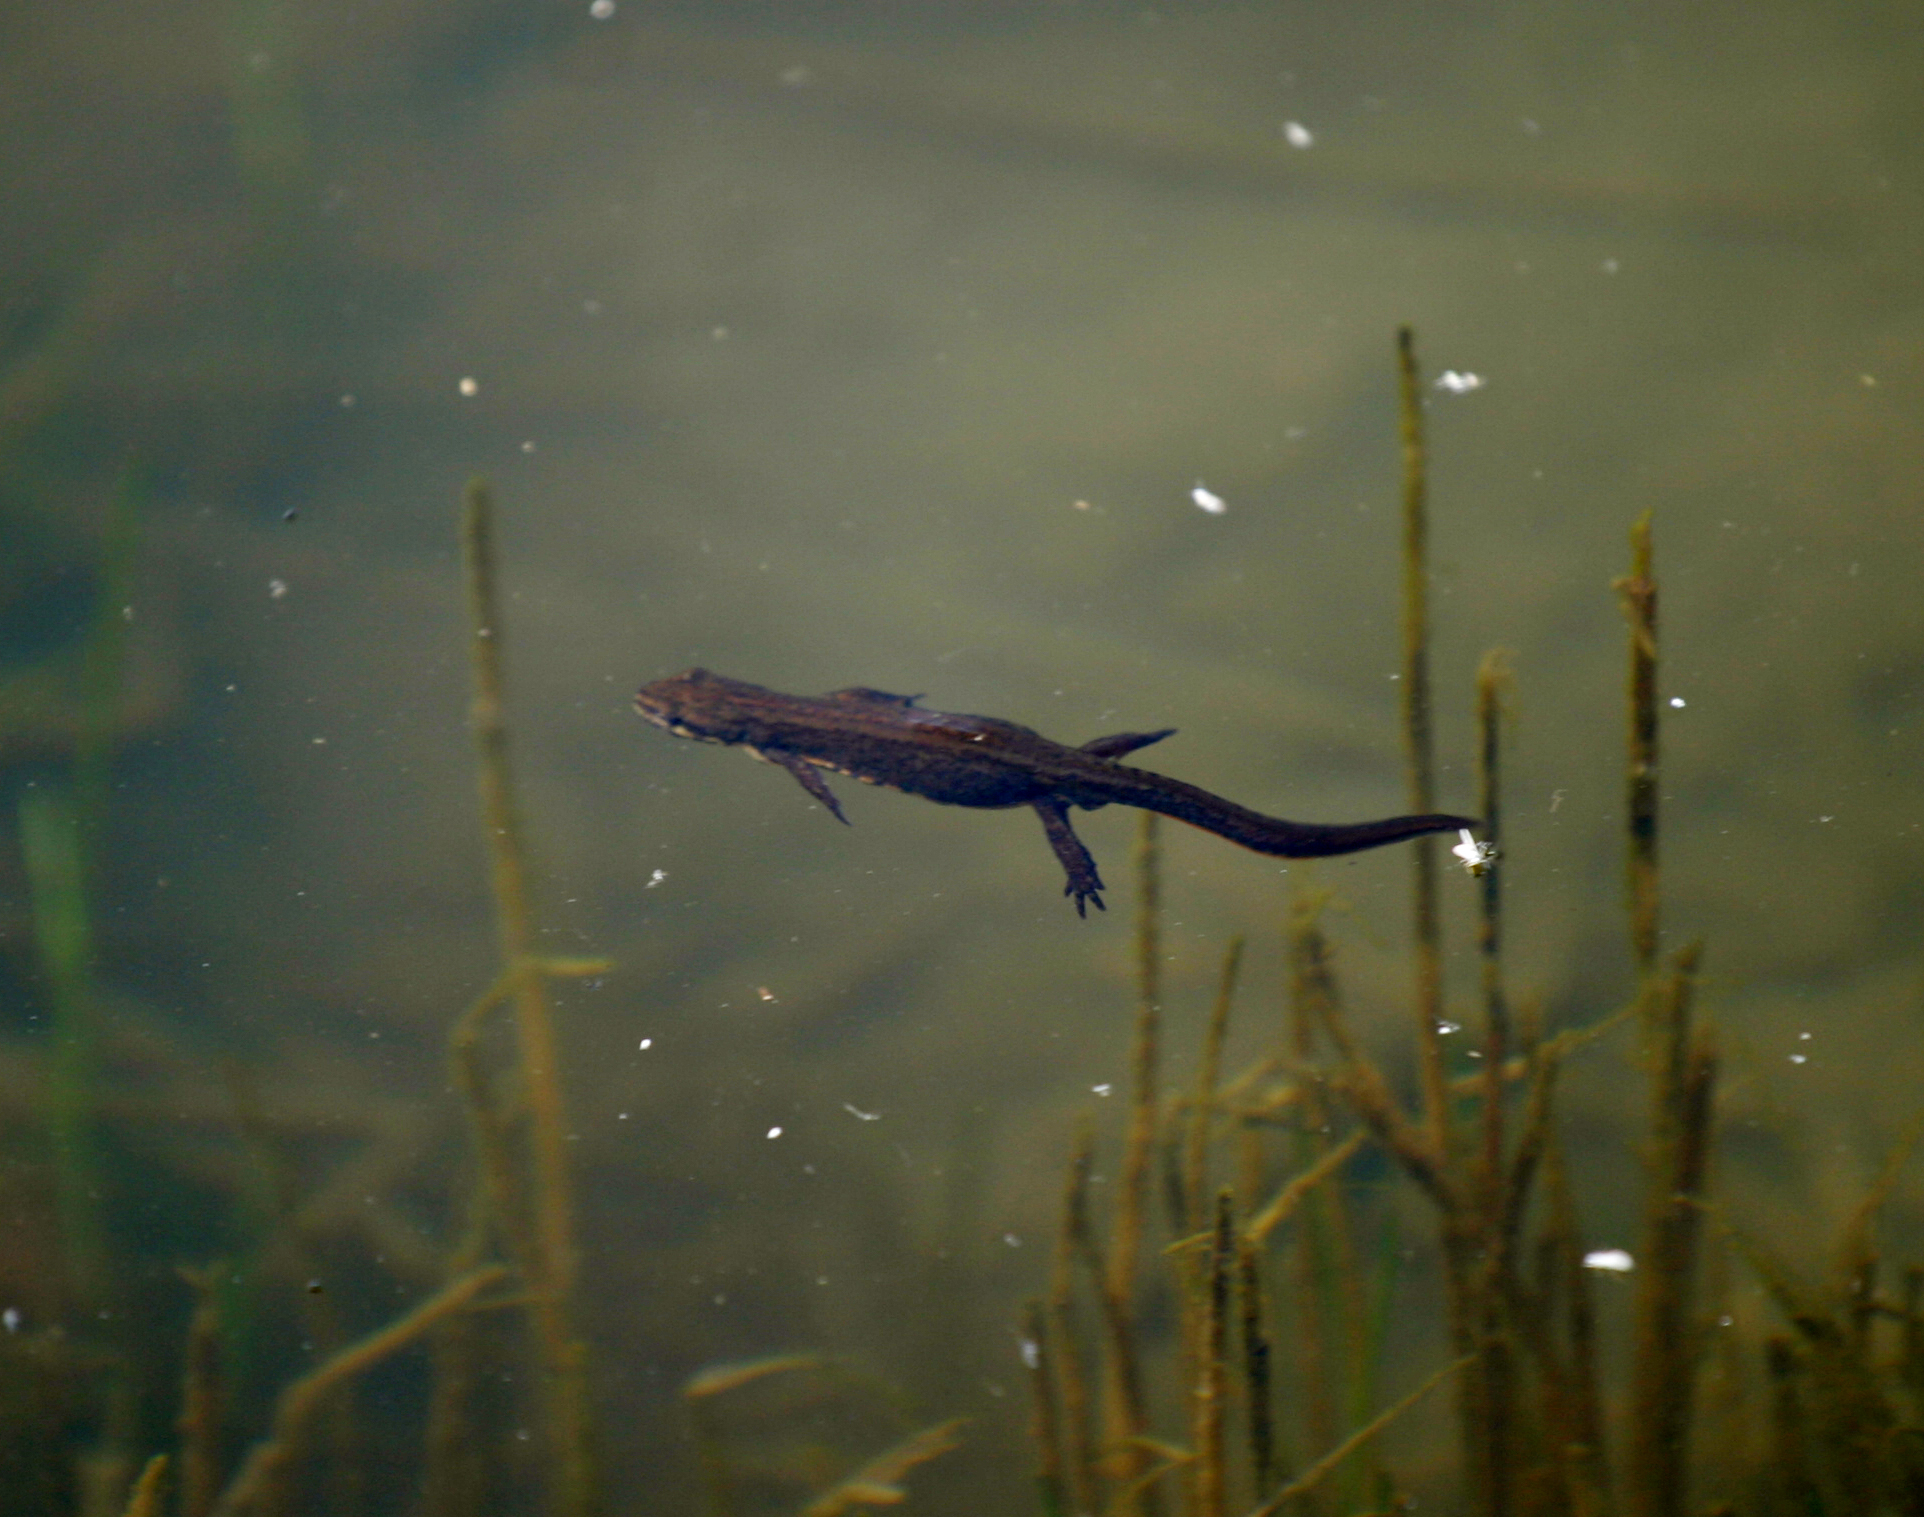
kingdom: Animalia
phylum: Chordata
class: Amphibia
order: Caudata
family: Salamandridae
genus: Lissotriton
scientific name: Lissotriton lantzi
